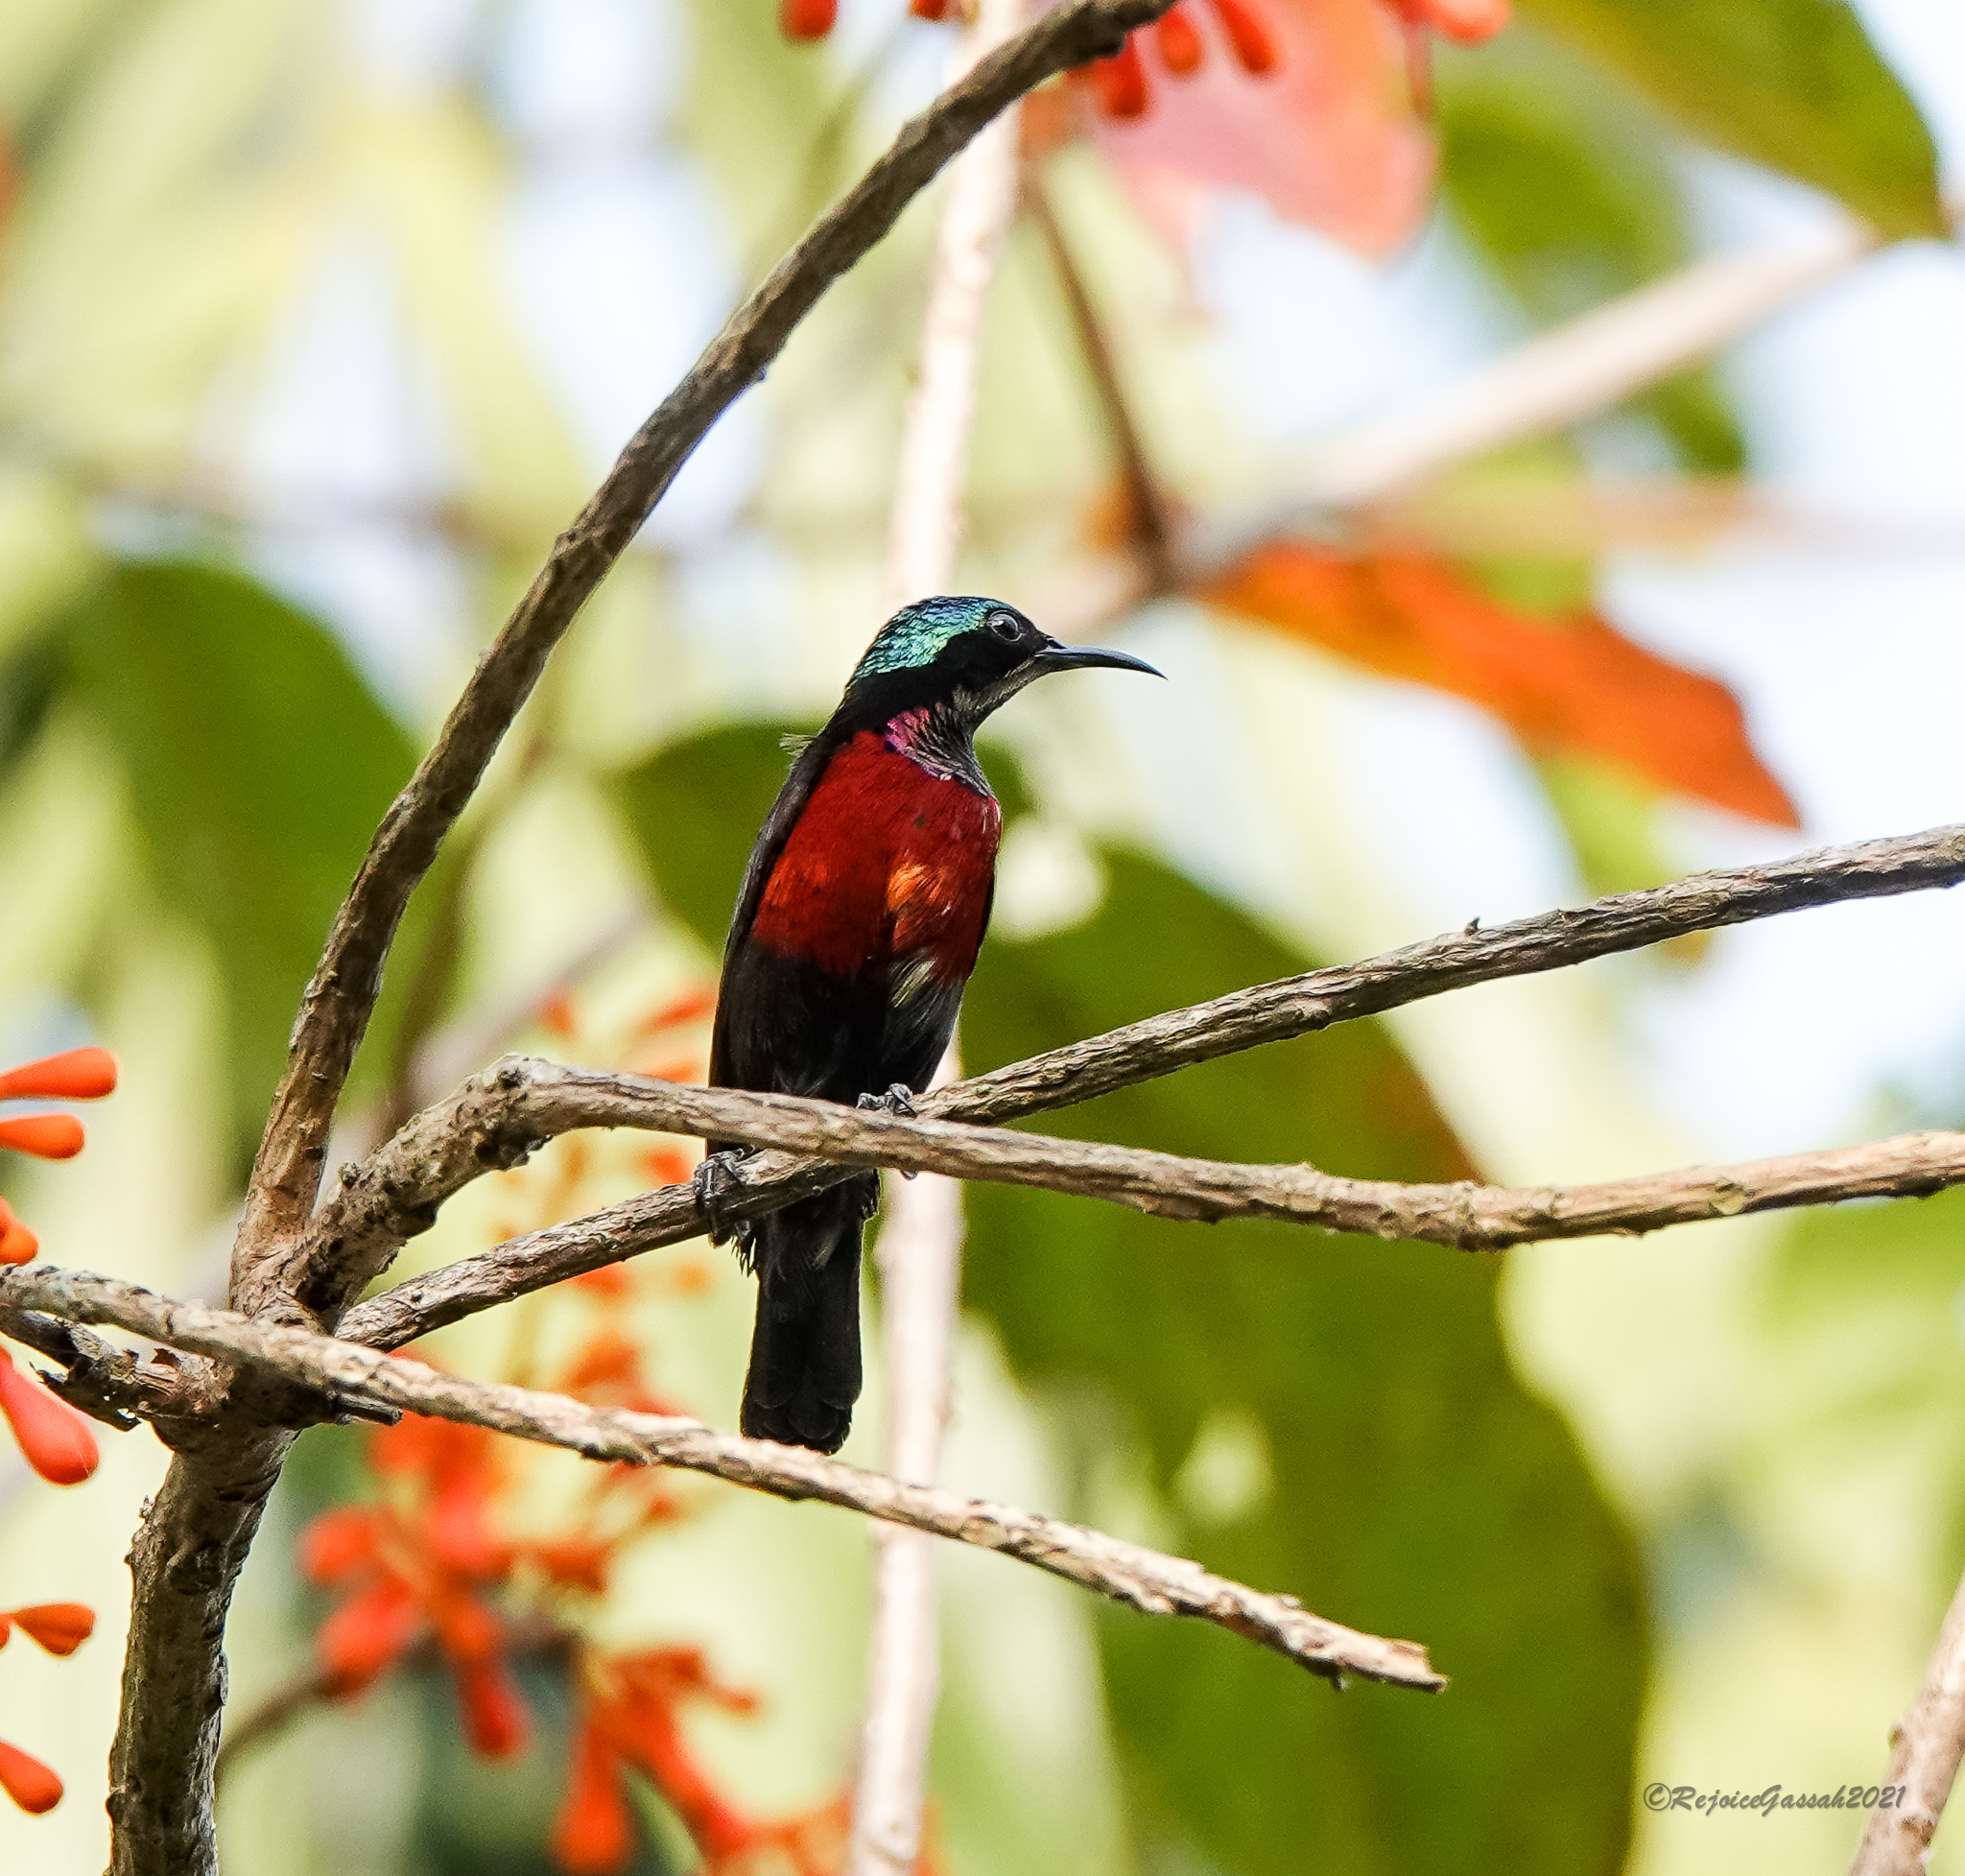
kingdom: Animalia
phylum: Chordata
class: Aves
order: Passeriformes
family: Nectariniidae
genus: Leptocoma
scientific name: Leptocoma brasiliana
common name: Van hasselt's sunbird
